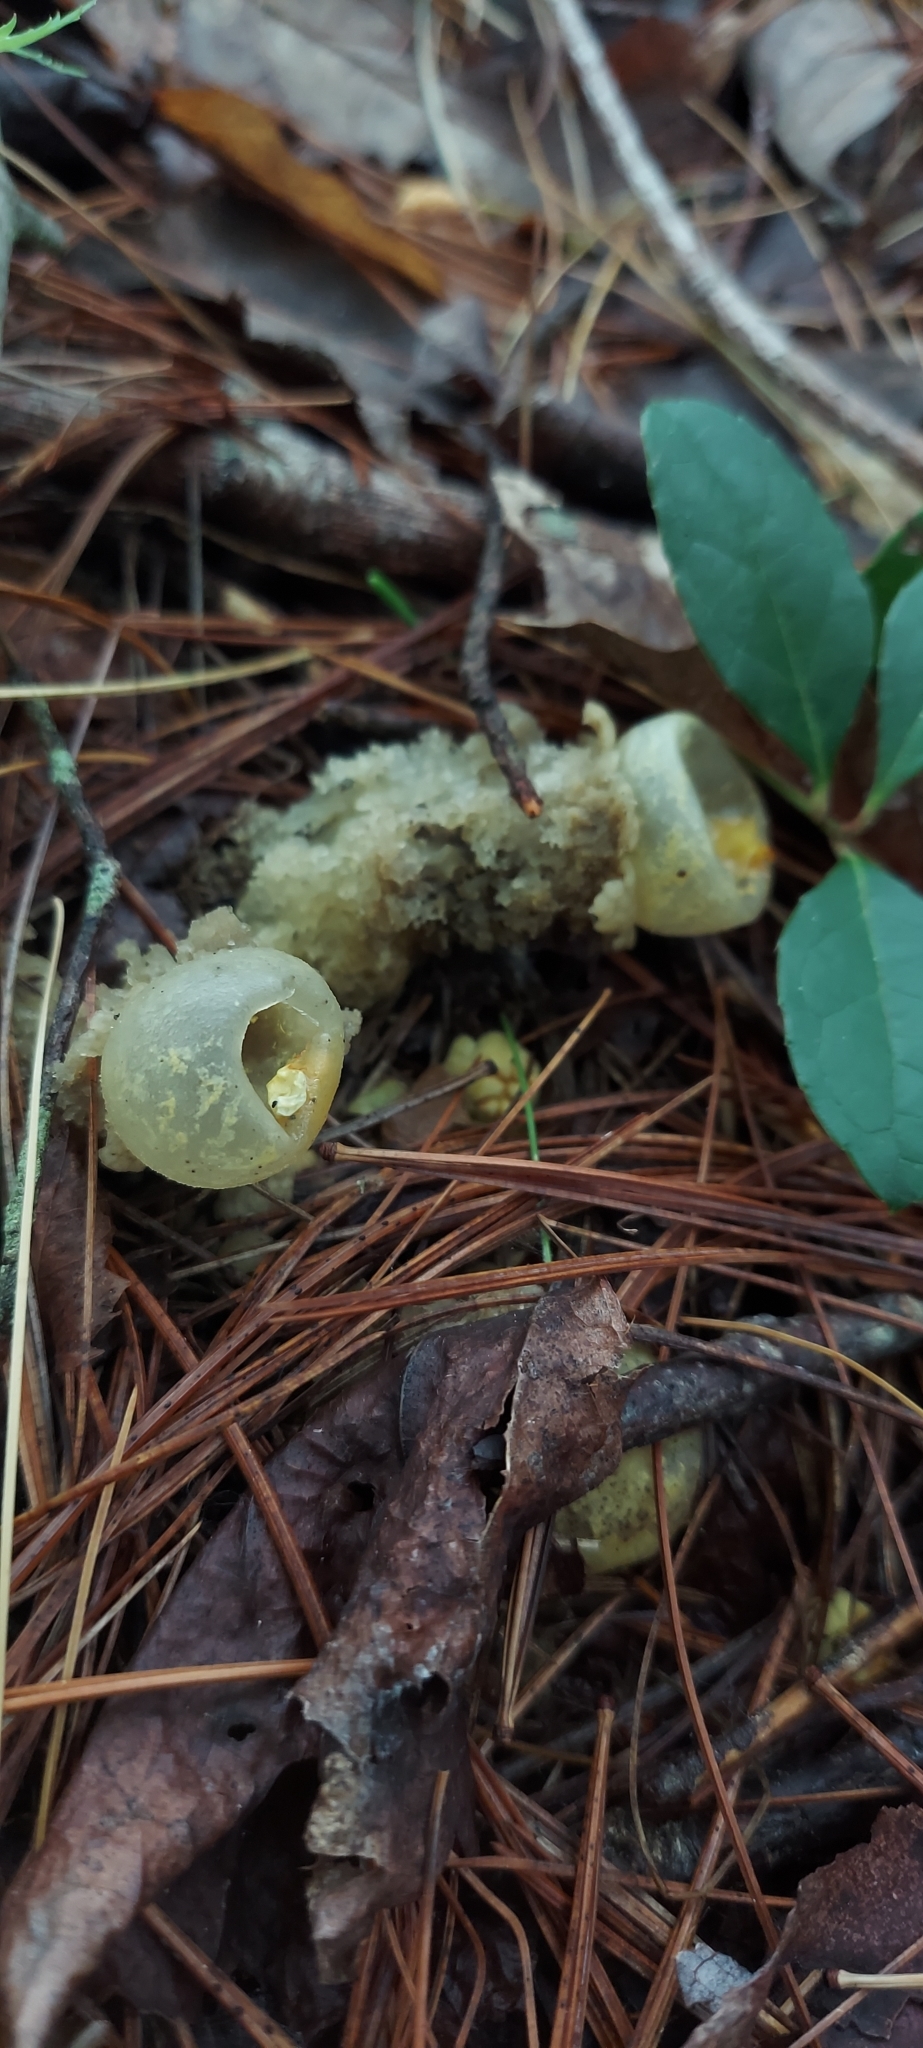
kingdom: Fungi
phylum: Basidiomycota
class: Agaricomycetes
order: Boletales
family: Calostomataceae
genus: Calostoma
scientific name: Calostoma lutescens
